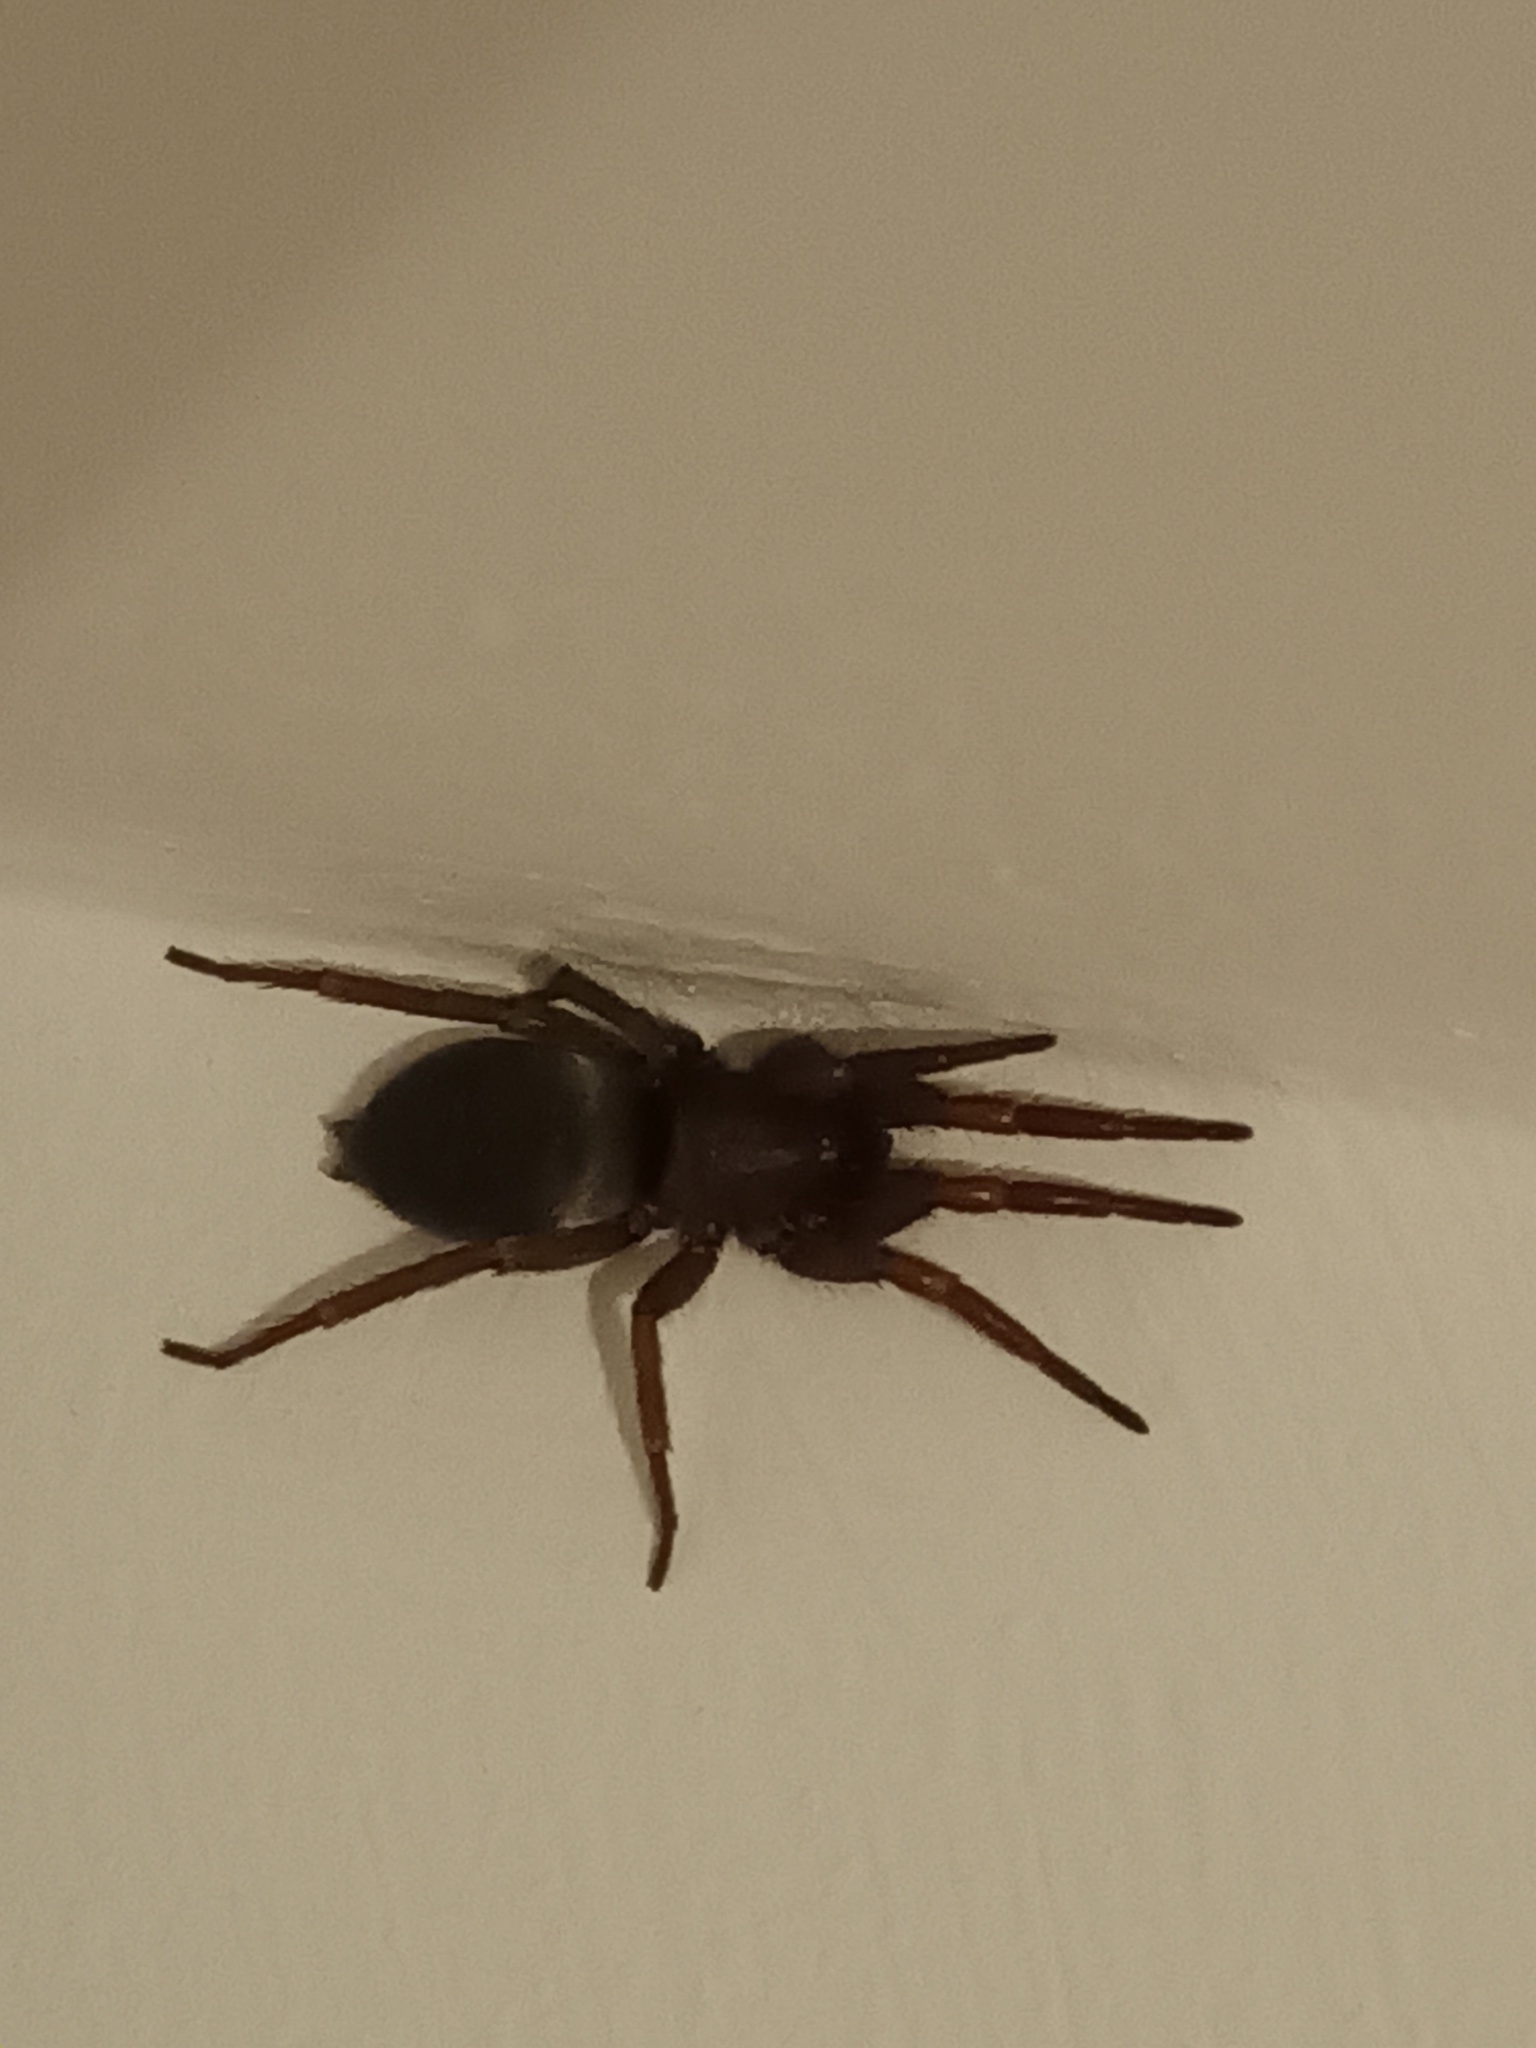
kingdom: Animalia
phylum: Arthropoda
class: Arachnida
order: Araneae
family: Gnaphosidae
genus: Scotophaeus
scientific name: Scotophaeus blackwalli
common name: Mouse spider
